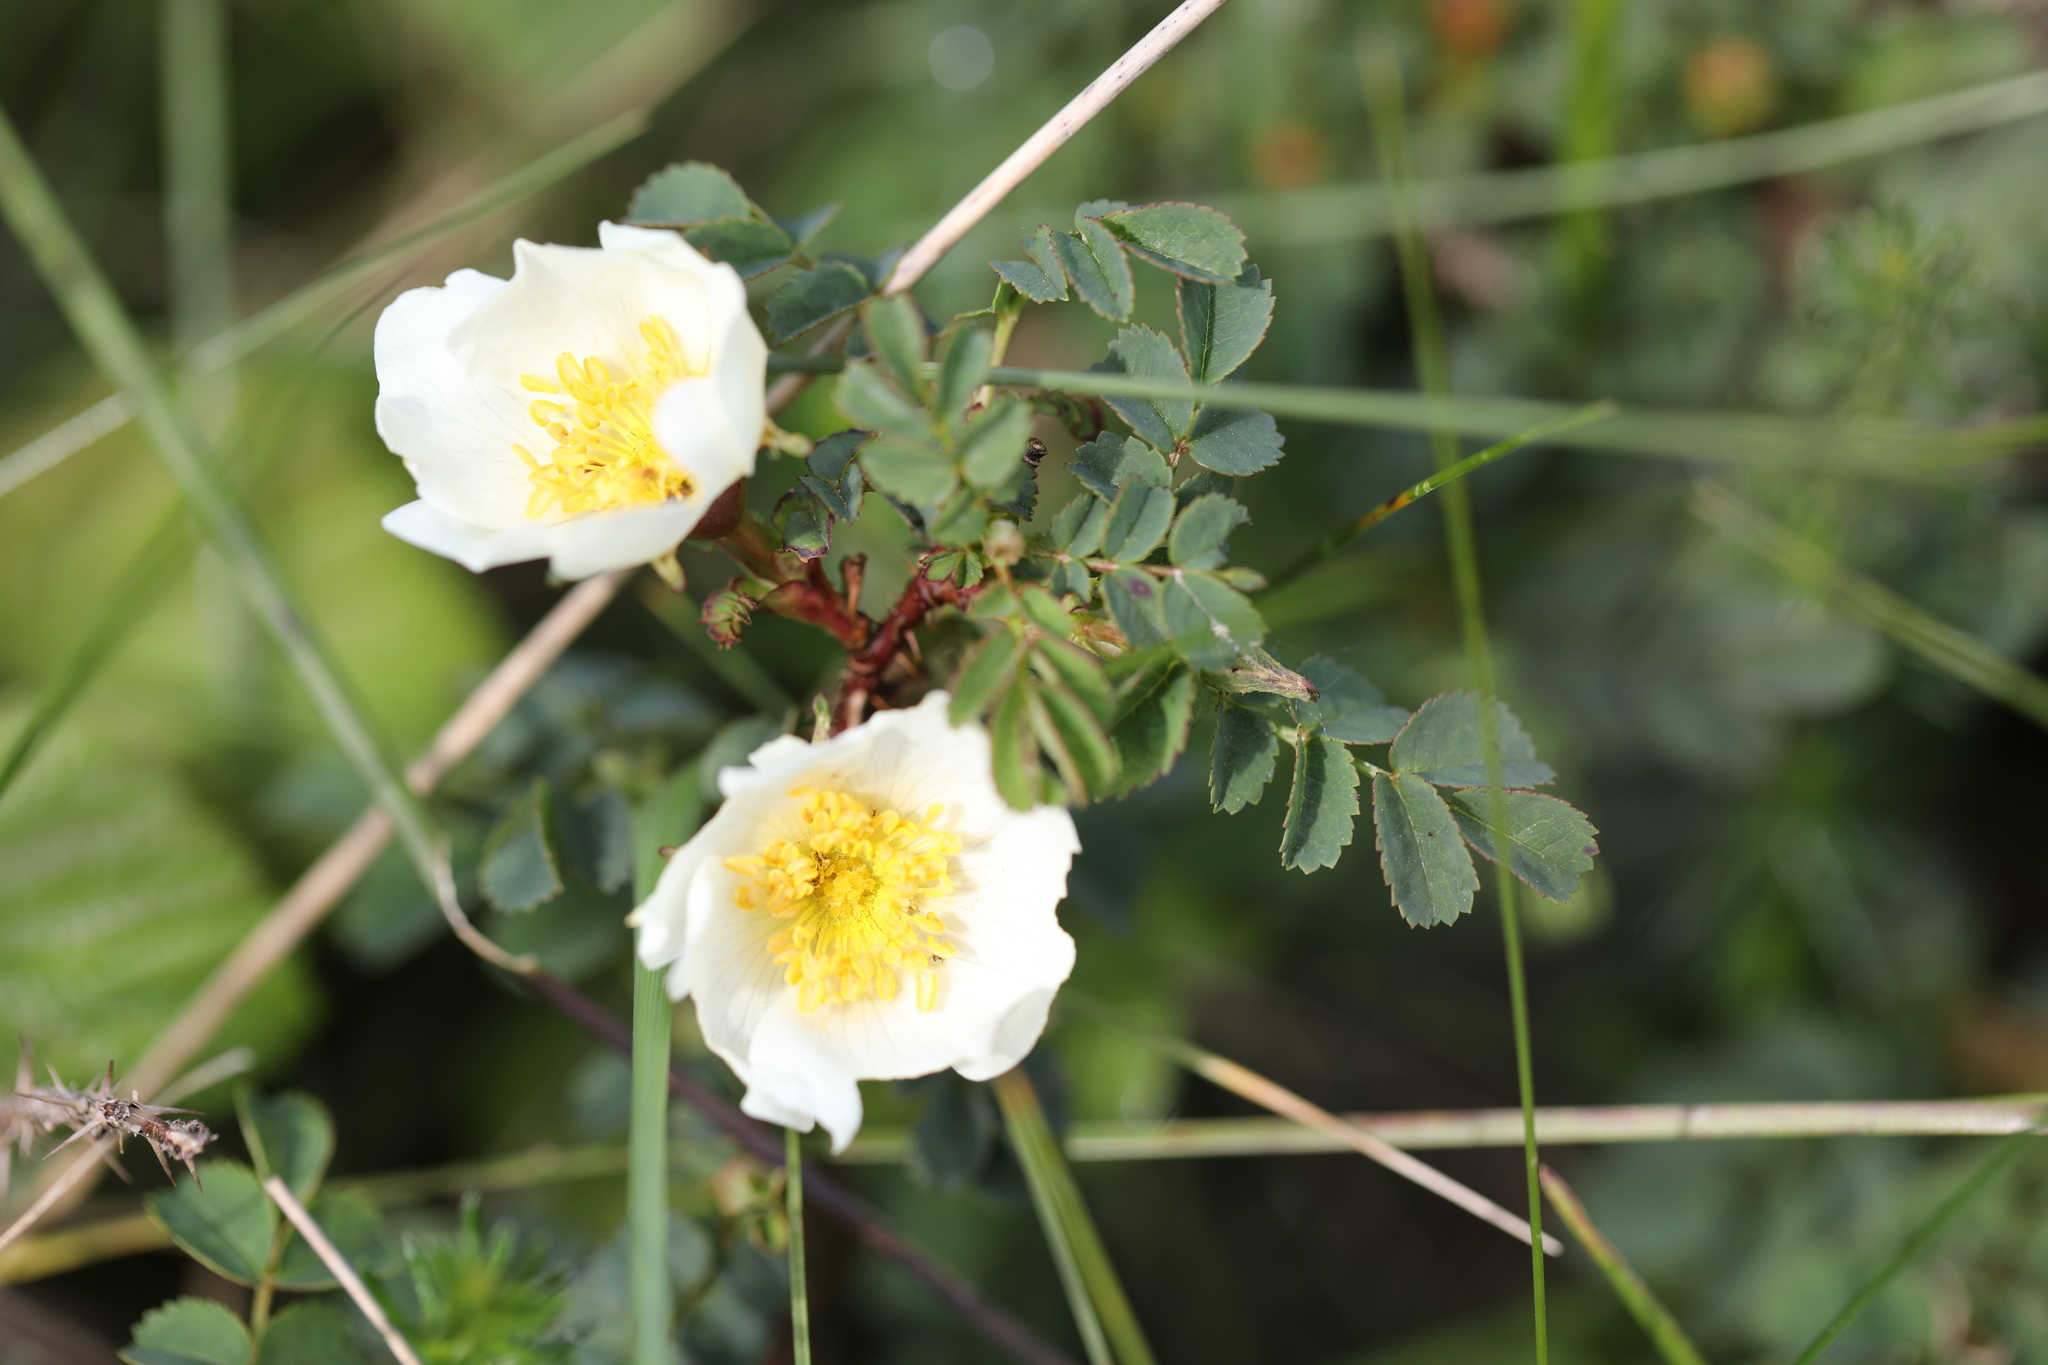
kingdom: Plantae
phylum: Tracheophyta
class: Magnoliopsida
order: Rosales
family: Rosaceae
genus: Rosa
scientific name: Rosa spinosissima
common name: Burnet rose
